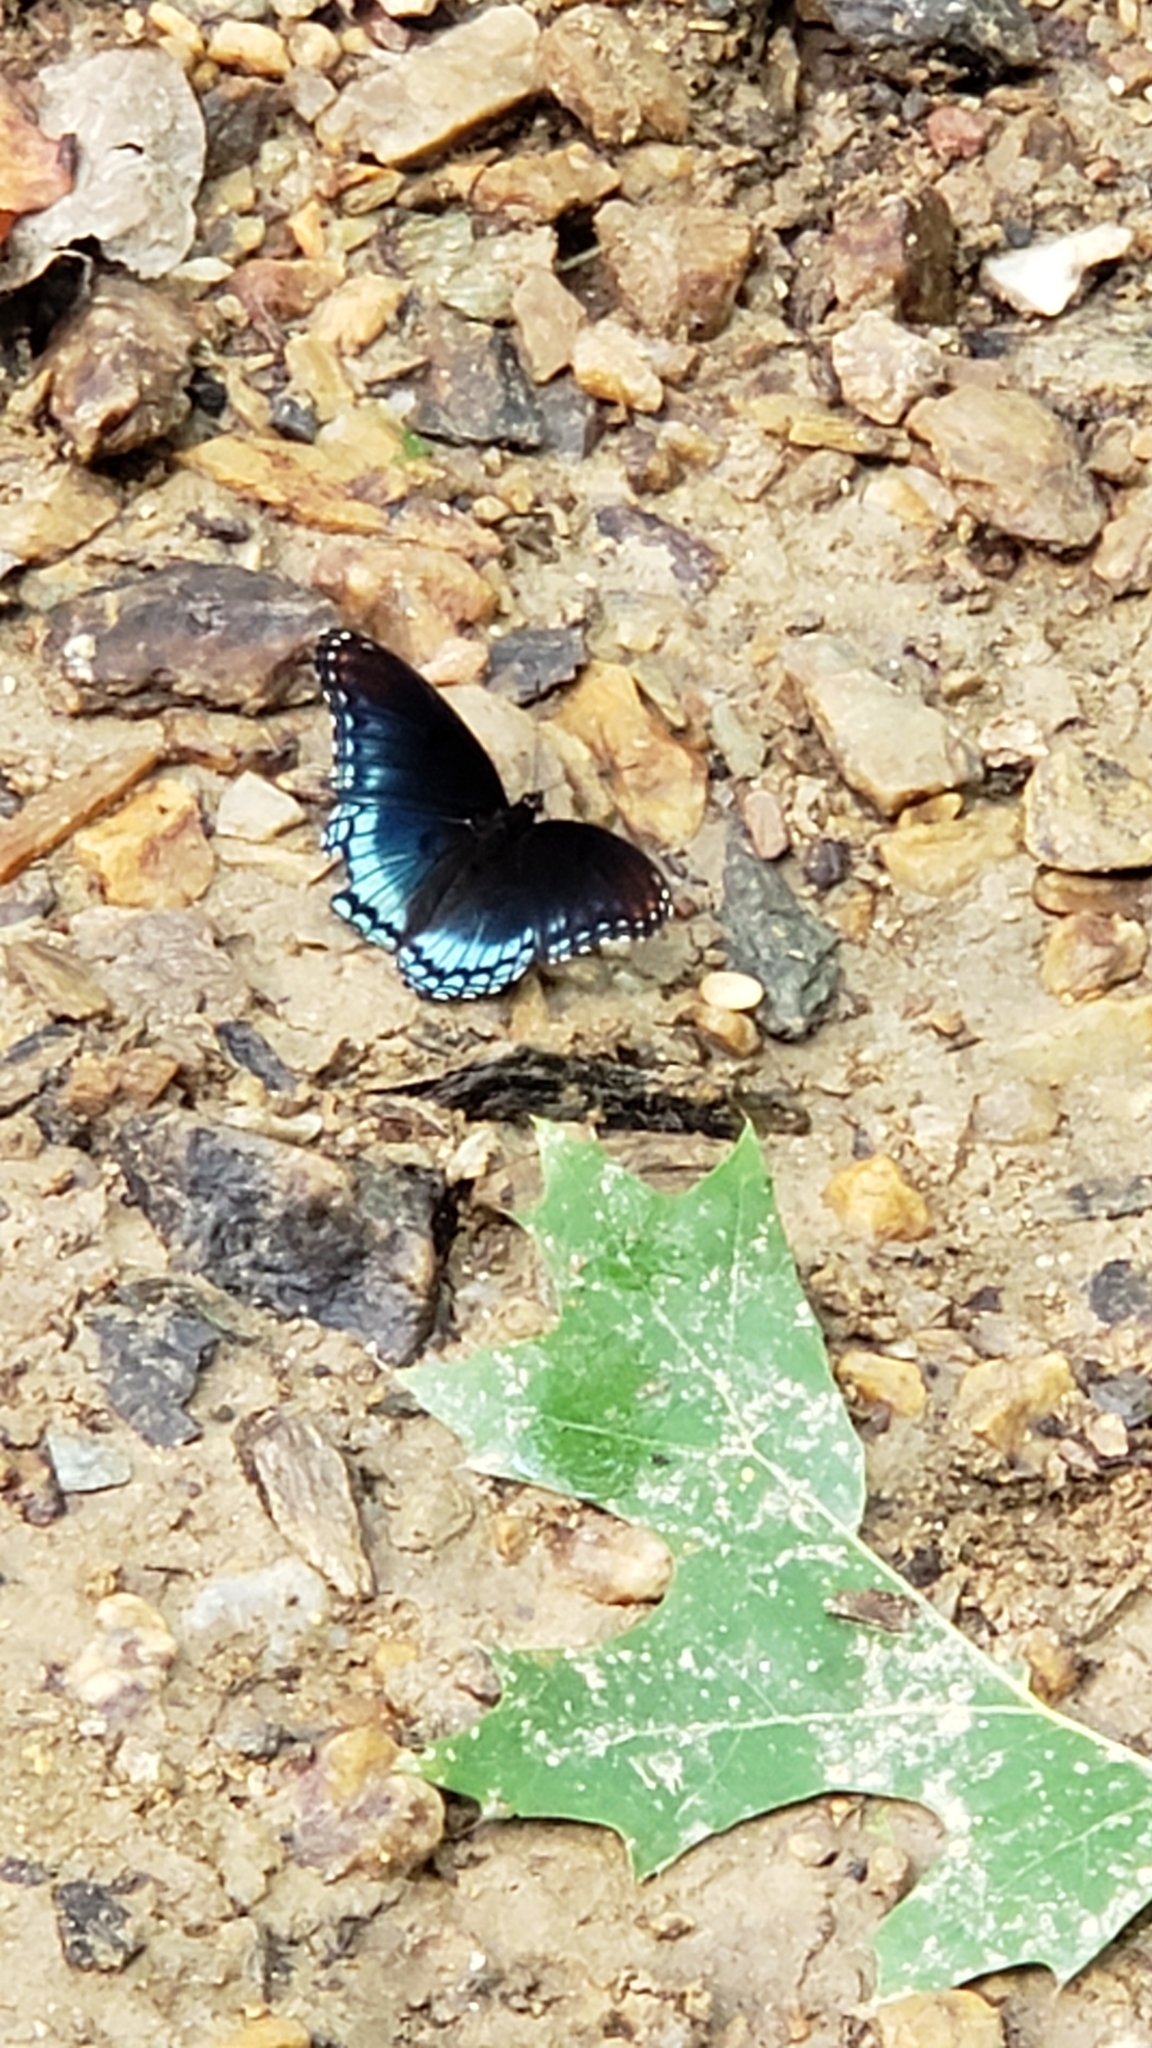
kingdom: Animalia
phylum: Arthropoda
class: Insecta
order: Lepidoptera
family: Nymphalidae
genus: Limenitis
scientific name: Limenitis astyanax
